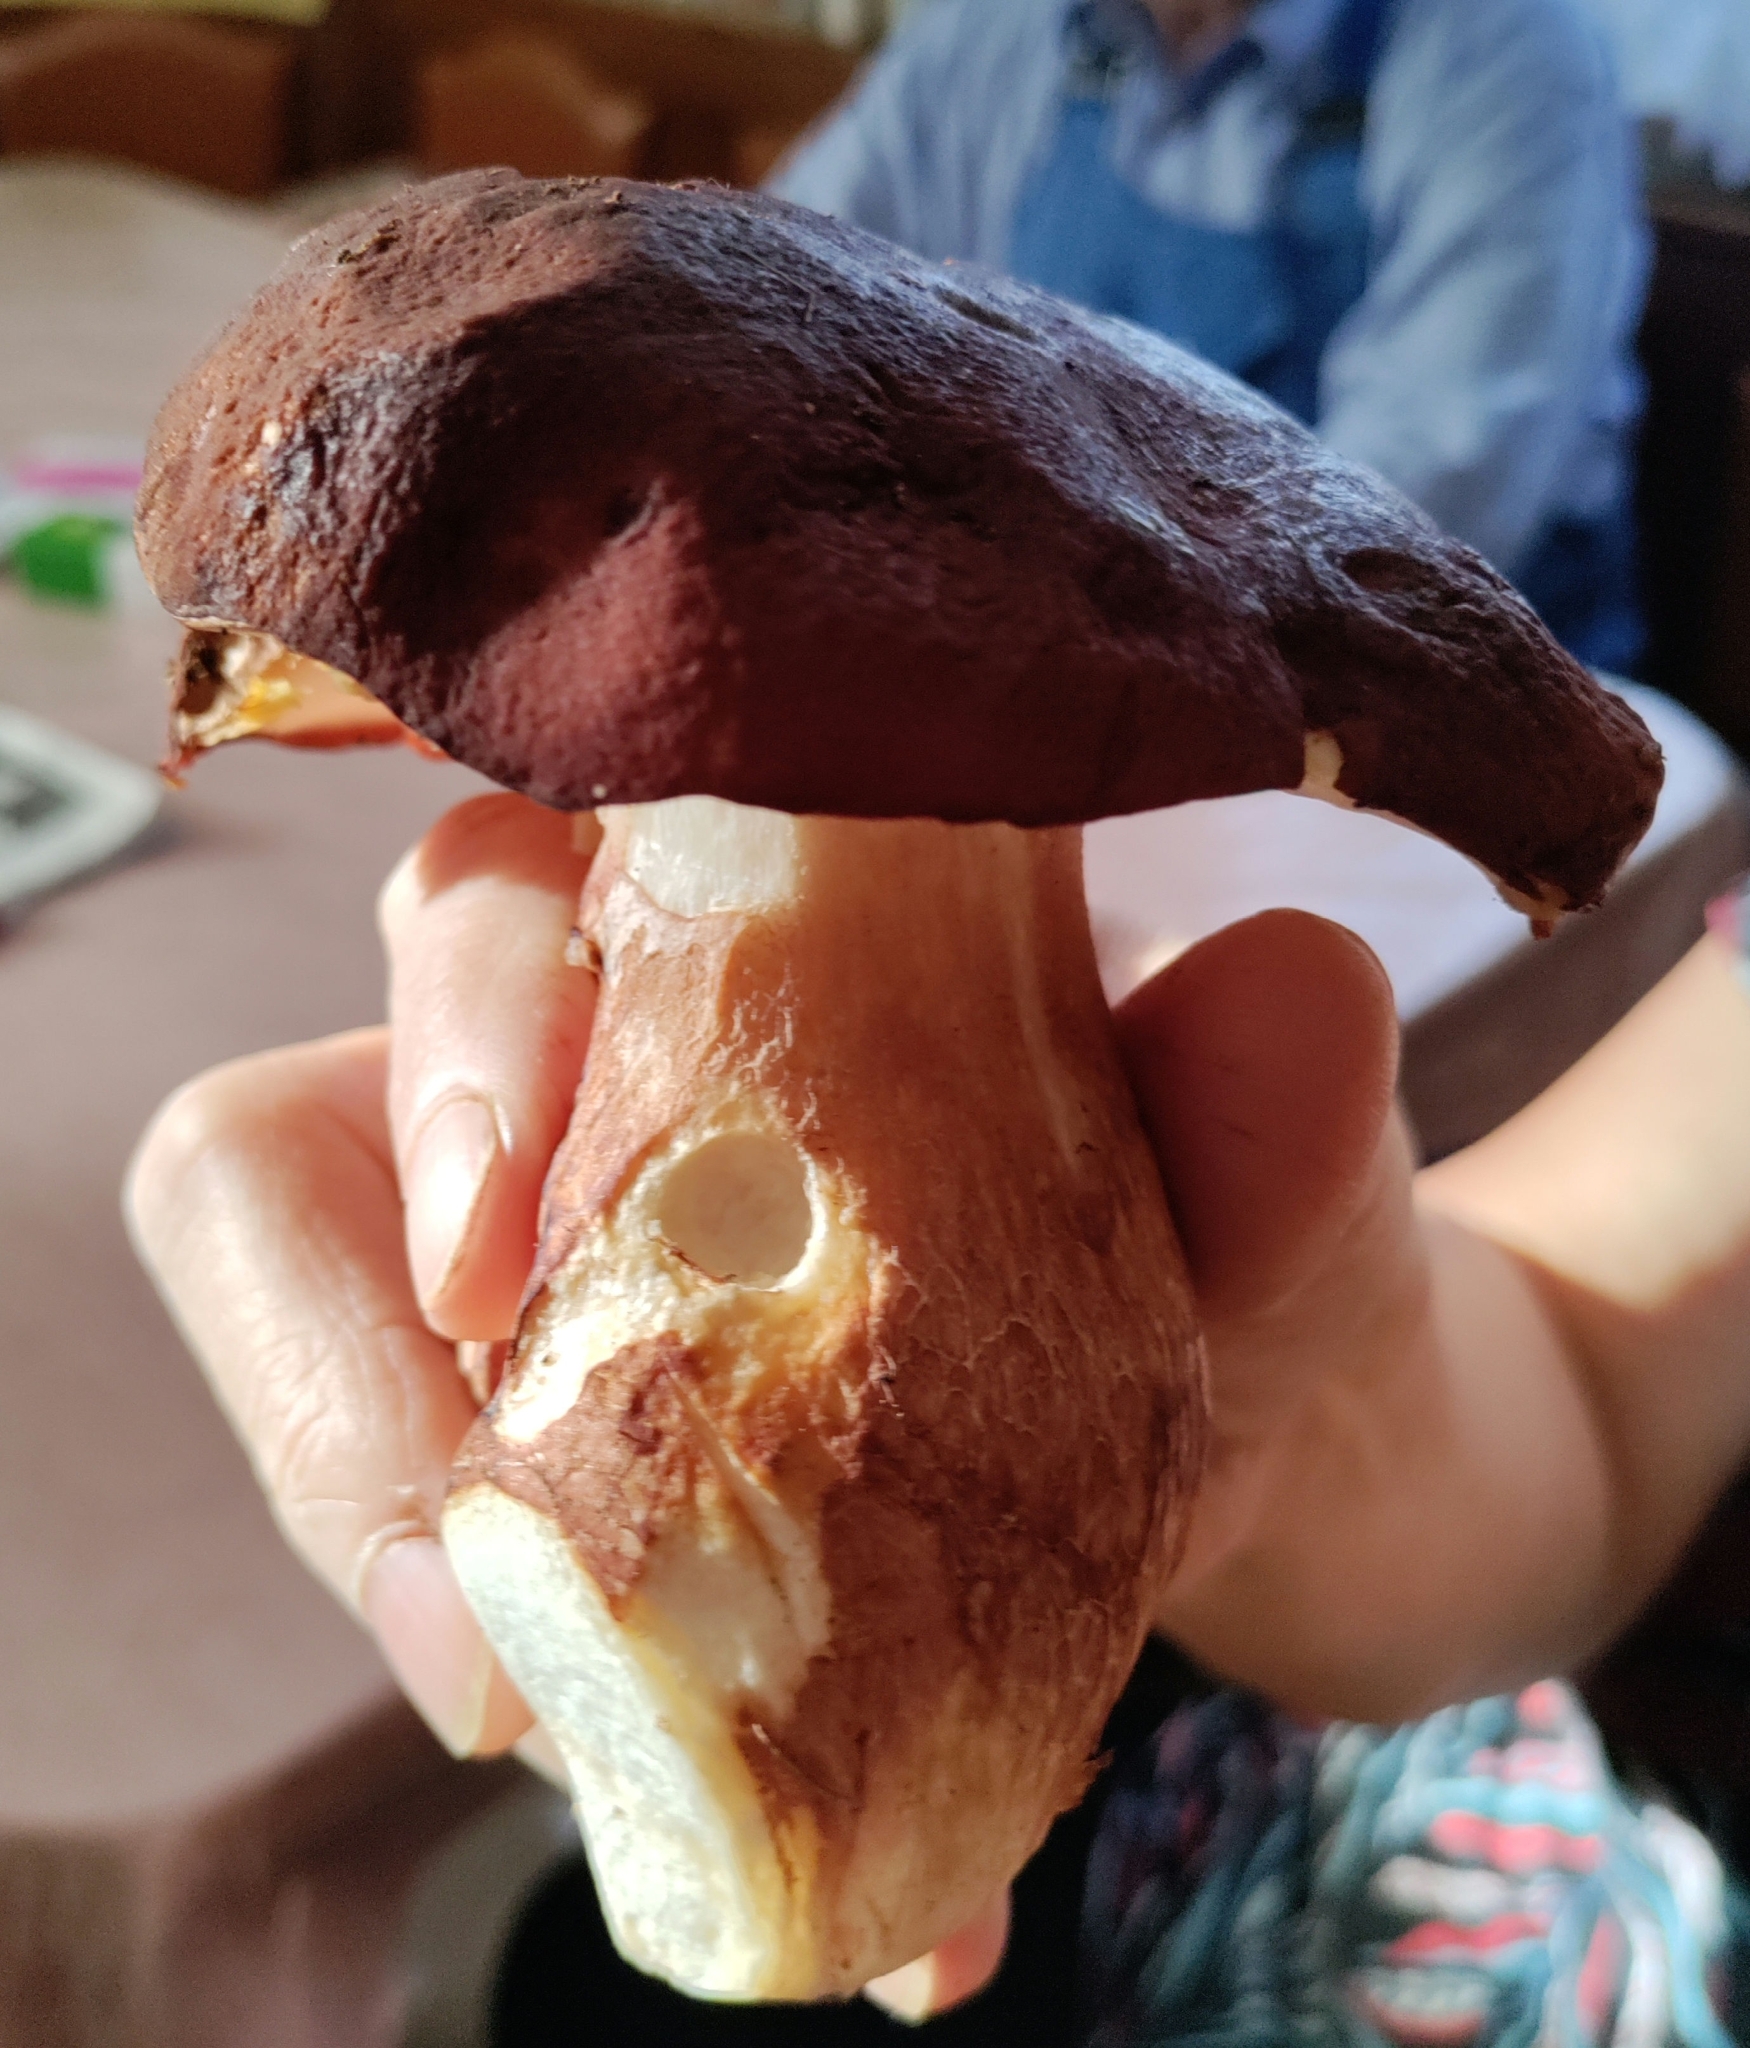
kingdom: Fungi
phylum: Basidiomycota
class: Agaricomycetes
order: Boletales
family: Boletaceae
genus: Boletus
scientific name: Boletus pinophilus
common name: Pine bolete
